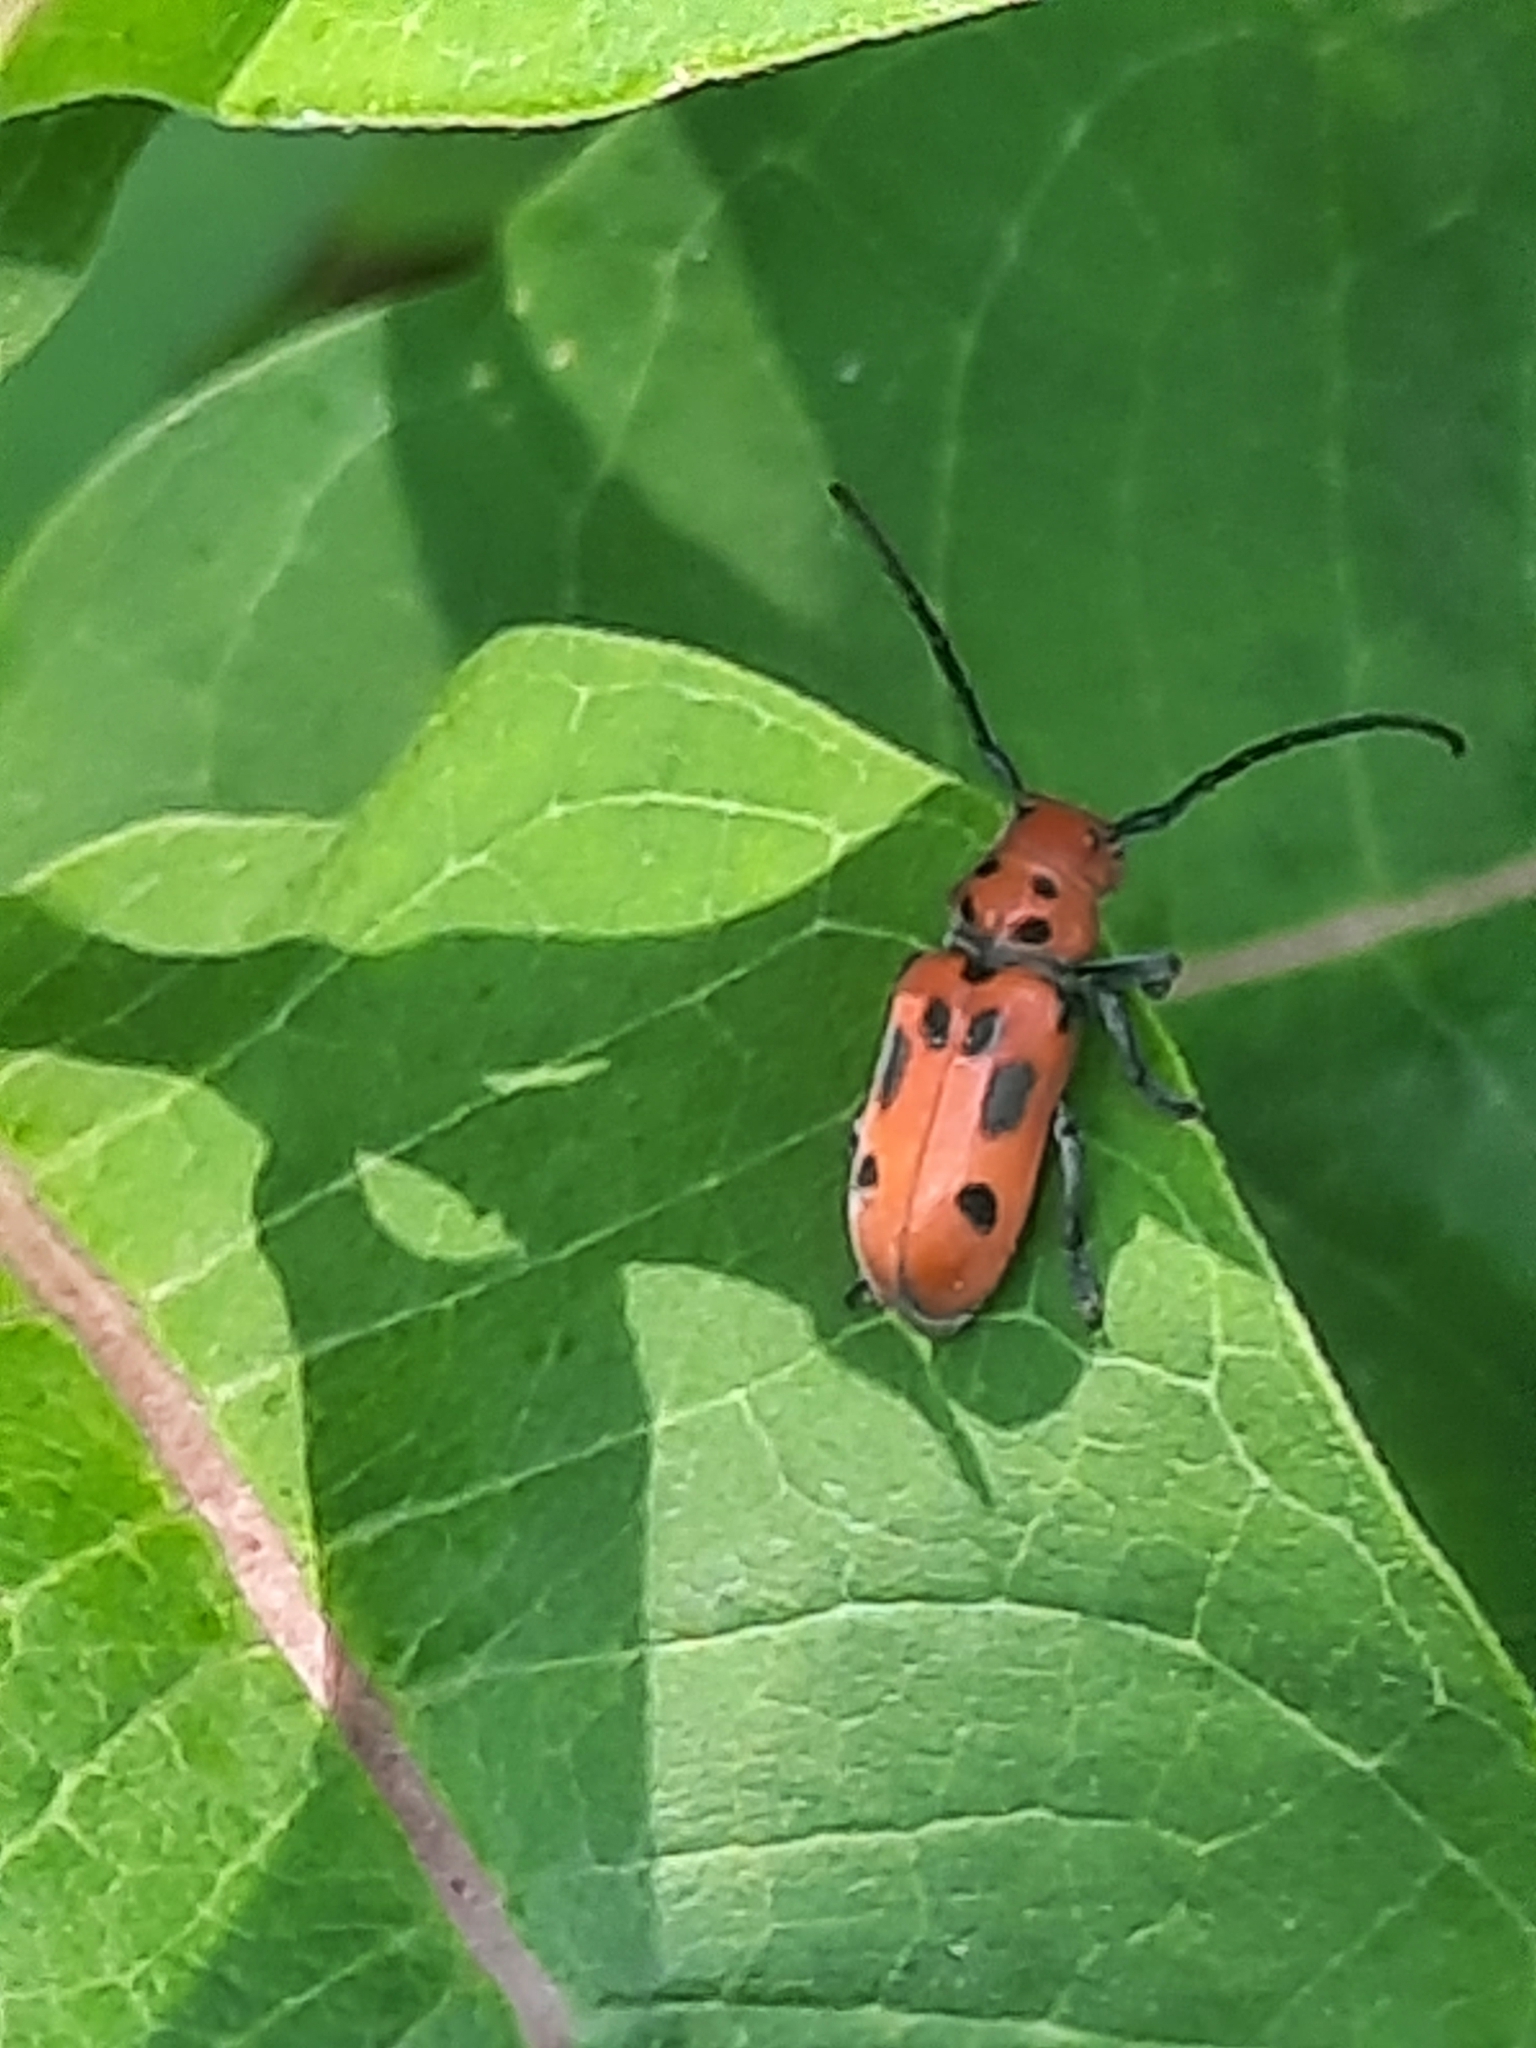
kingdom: Animalia
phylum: Arthropoda
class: Insecta
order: Coleoptera
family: Cerambycidae
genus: Tetraopes
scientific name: Tetraopes tetrophthalmus
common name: Red milkweed beetle
